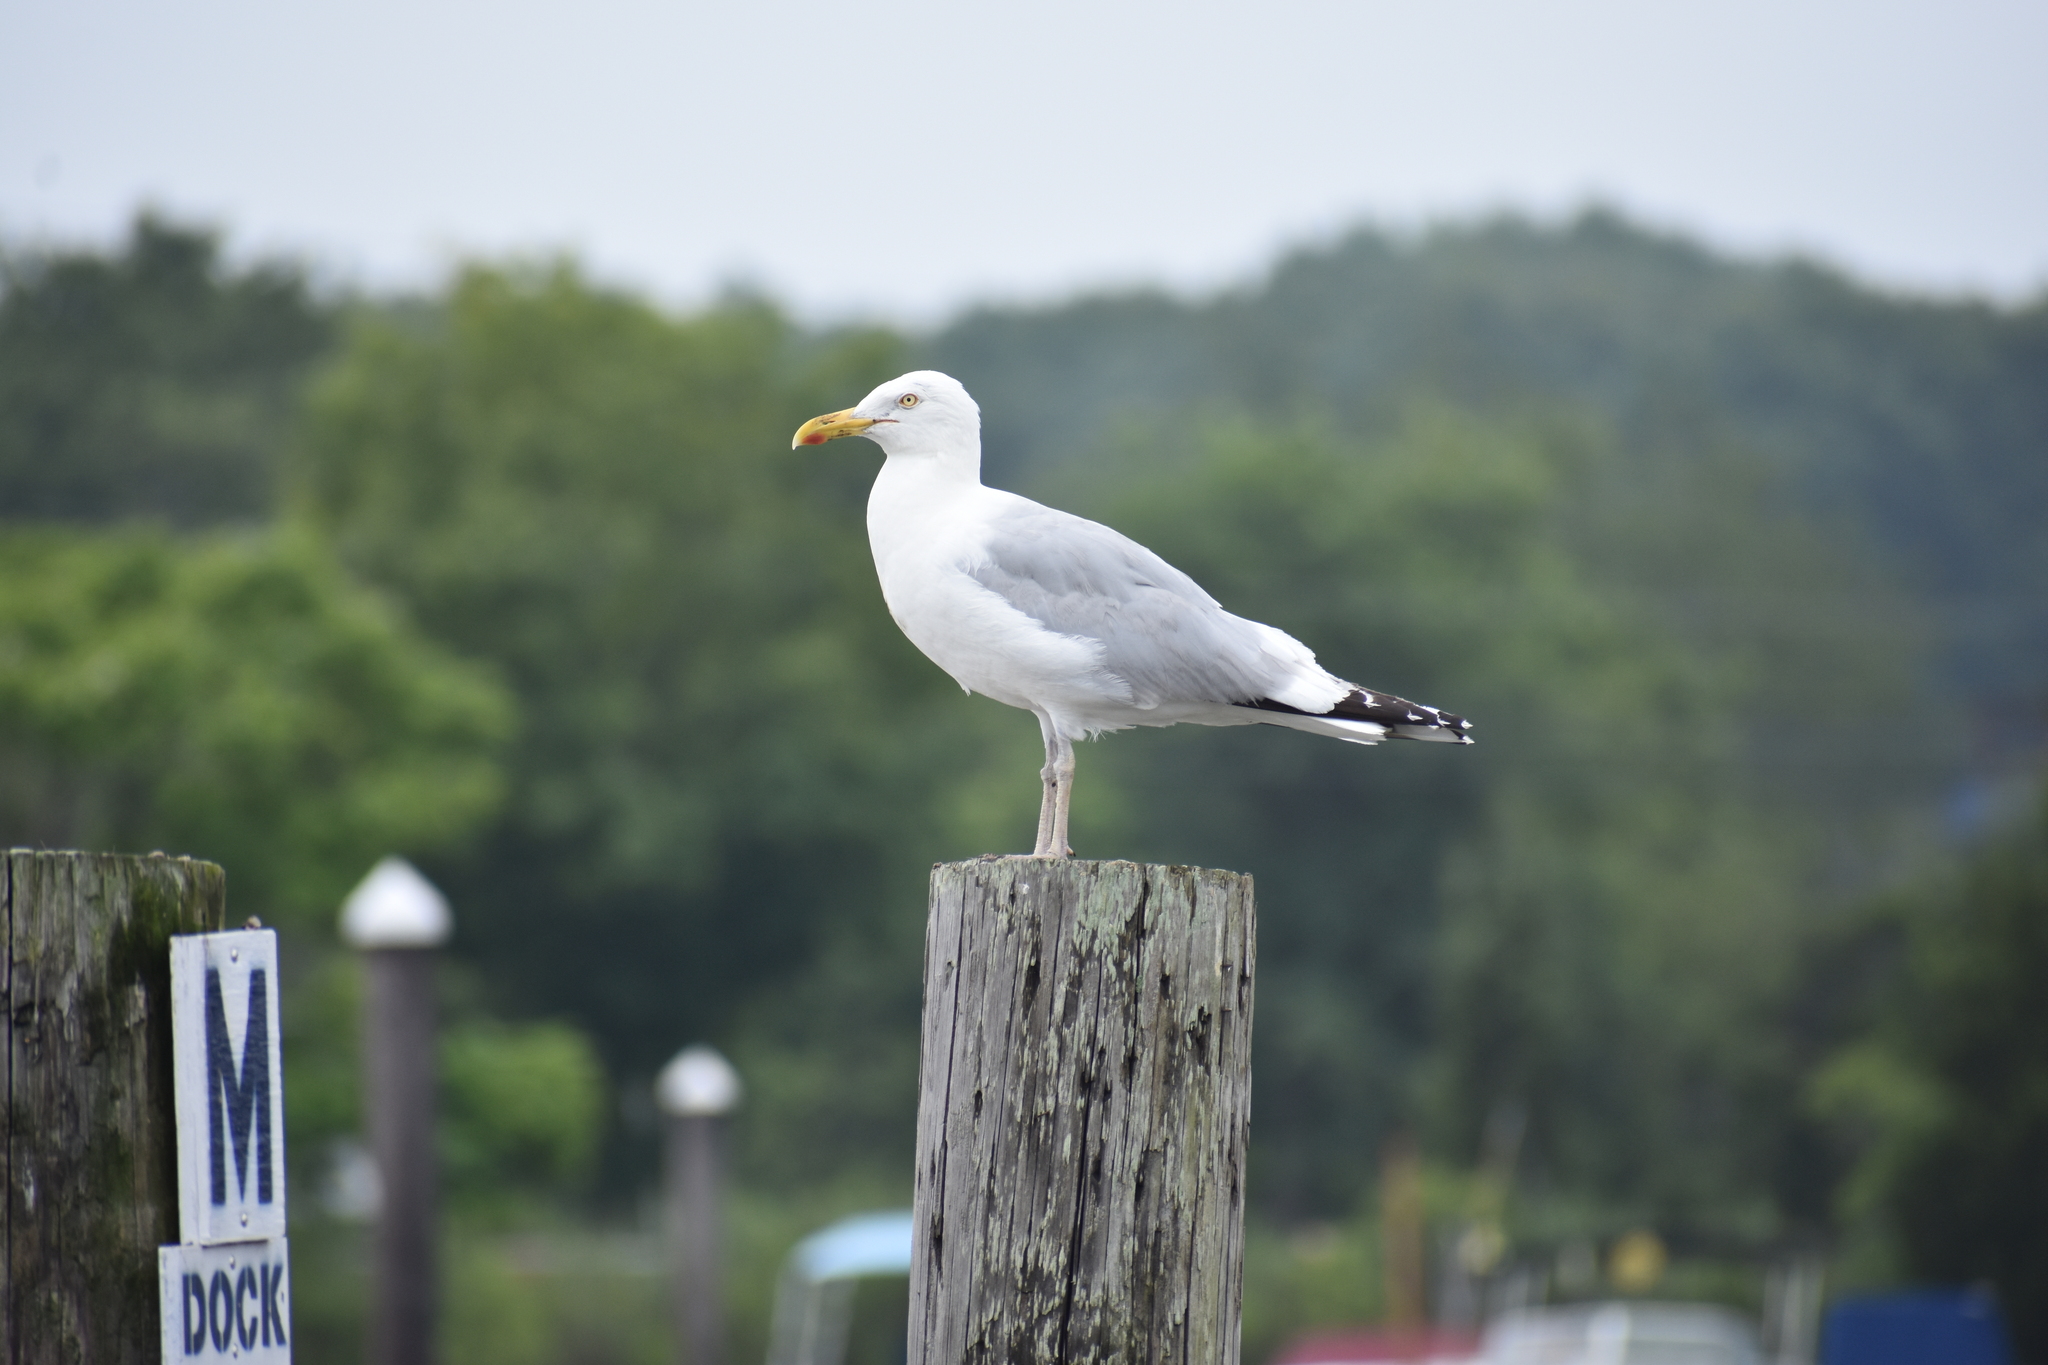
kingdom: Animalia
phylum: Chordata
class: Aves
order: Charadriiformes
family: Laridae
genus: Larus
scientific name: Larus argentatus
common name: Herring gull
